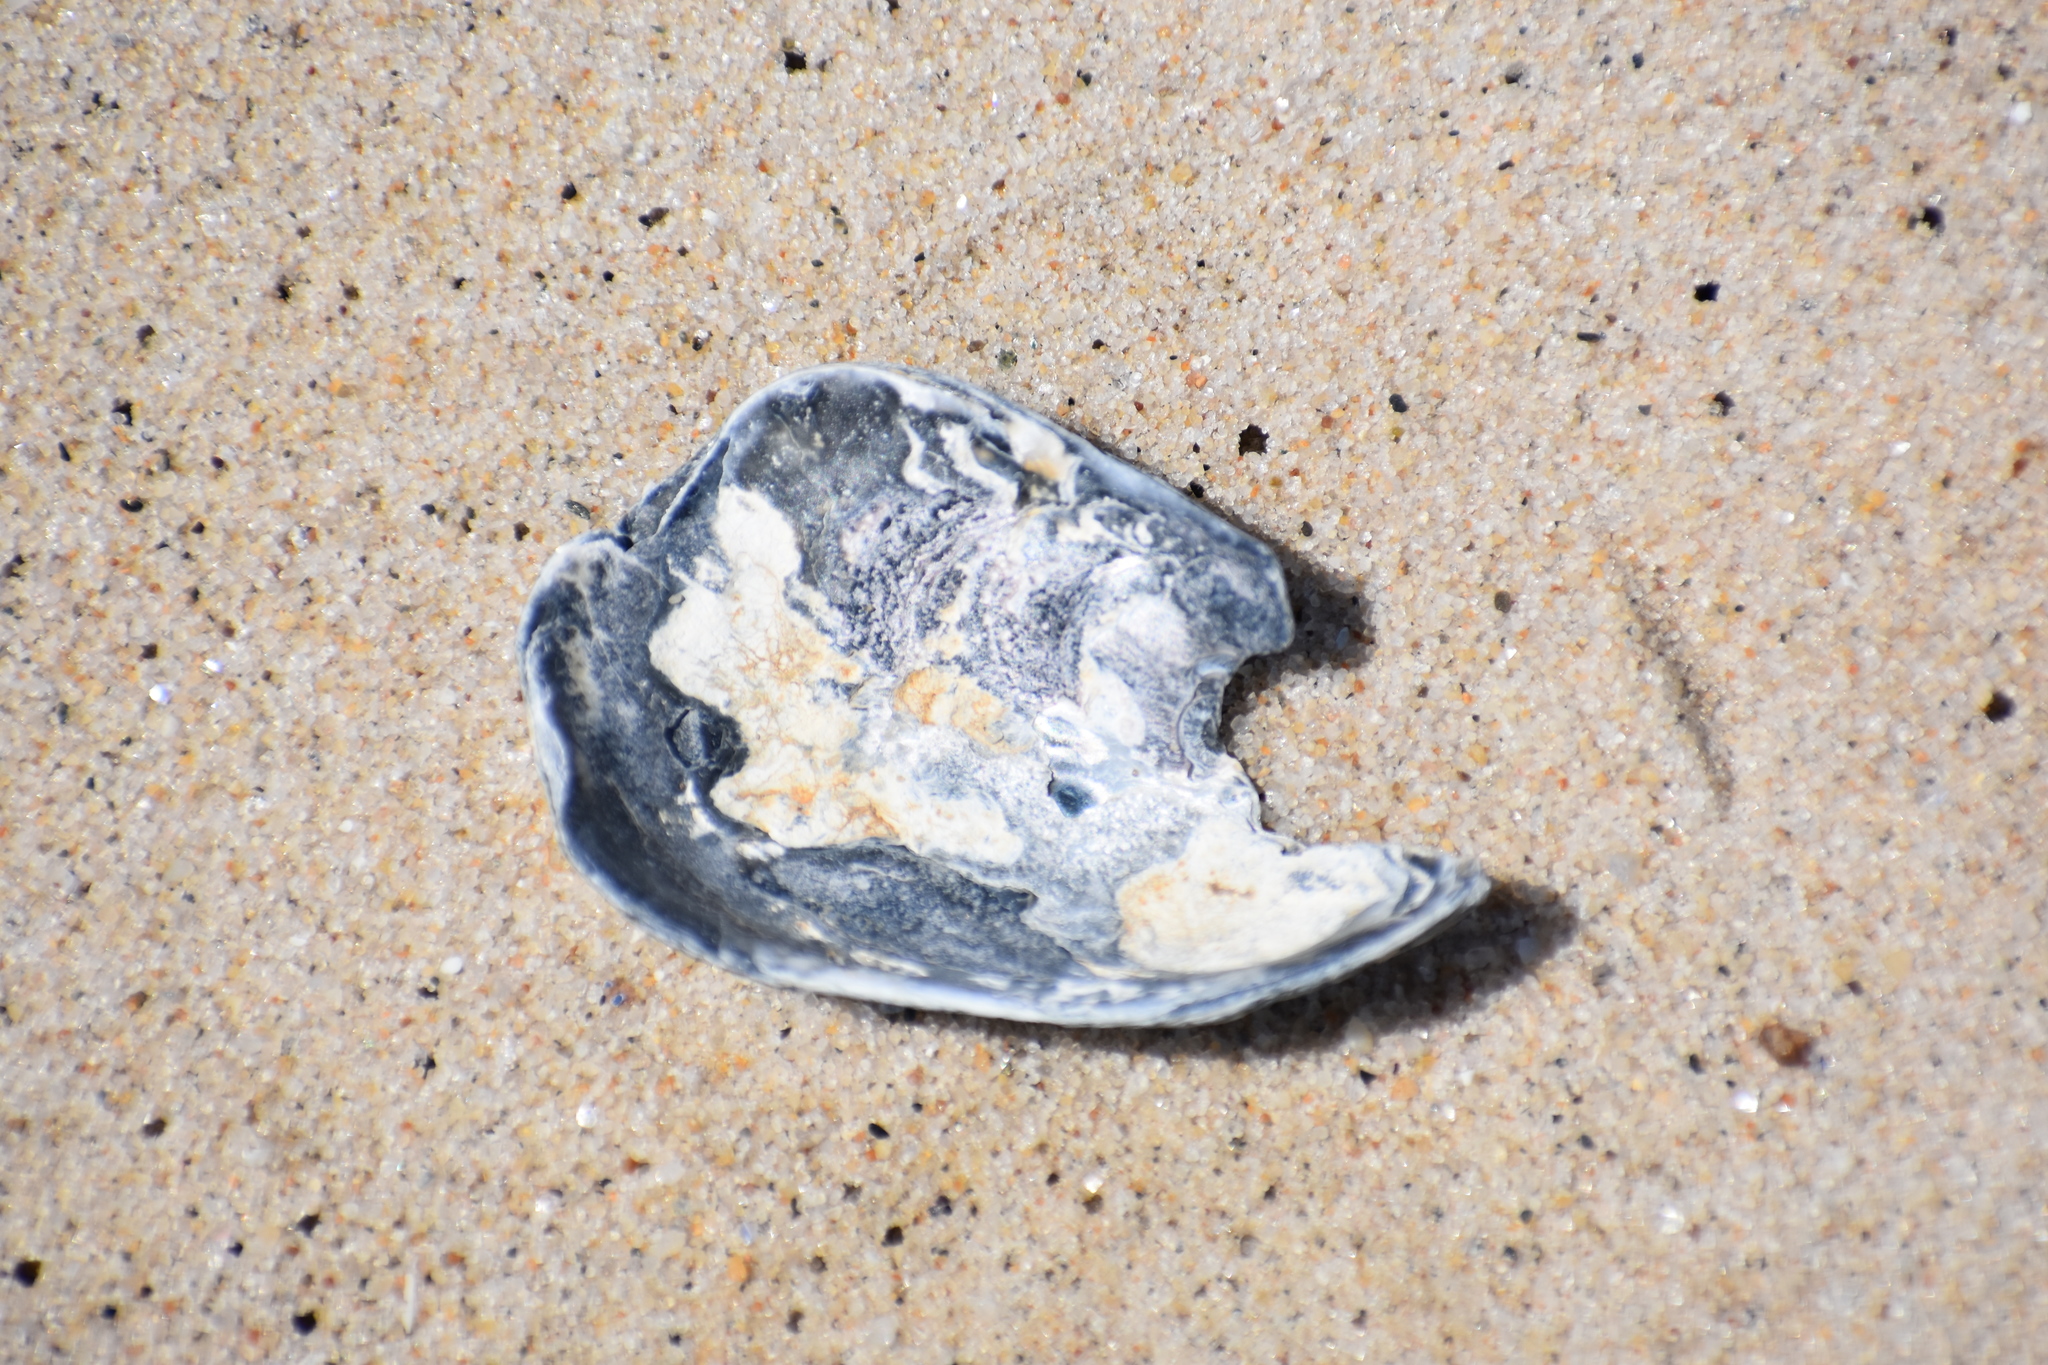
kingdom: Animalia
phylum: Mollusca
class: Bivalvia
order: Ostreida
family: Ostreidae
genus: Crassostrea
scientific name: Crassostrea virginica
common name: American oyster
